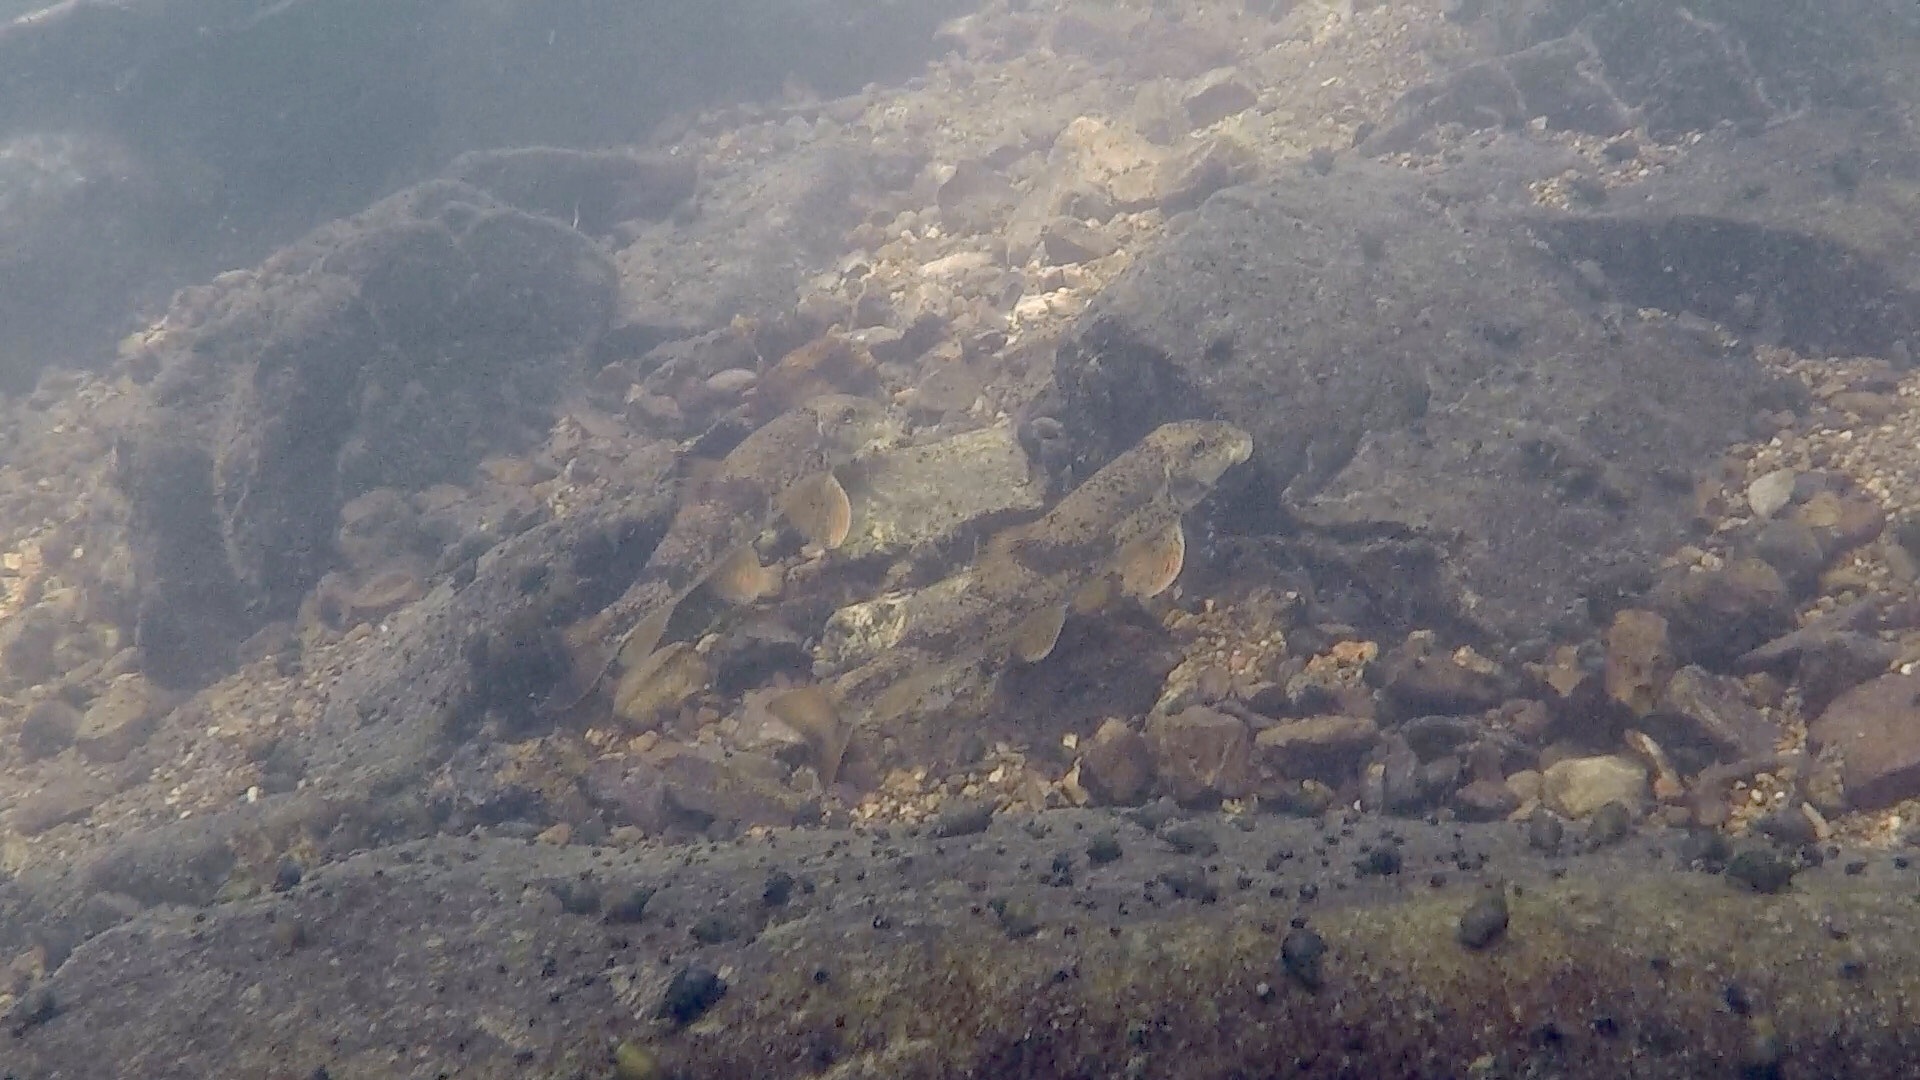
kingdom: Animalia
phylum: Chordata
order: Cypriniformes
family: Catostomidae
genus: Hypentelium
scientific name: Hypentelium etowanum
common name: Alabama hog sucker
